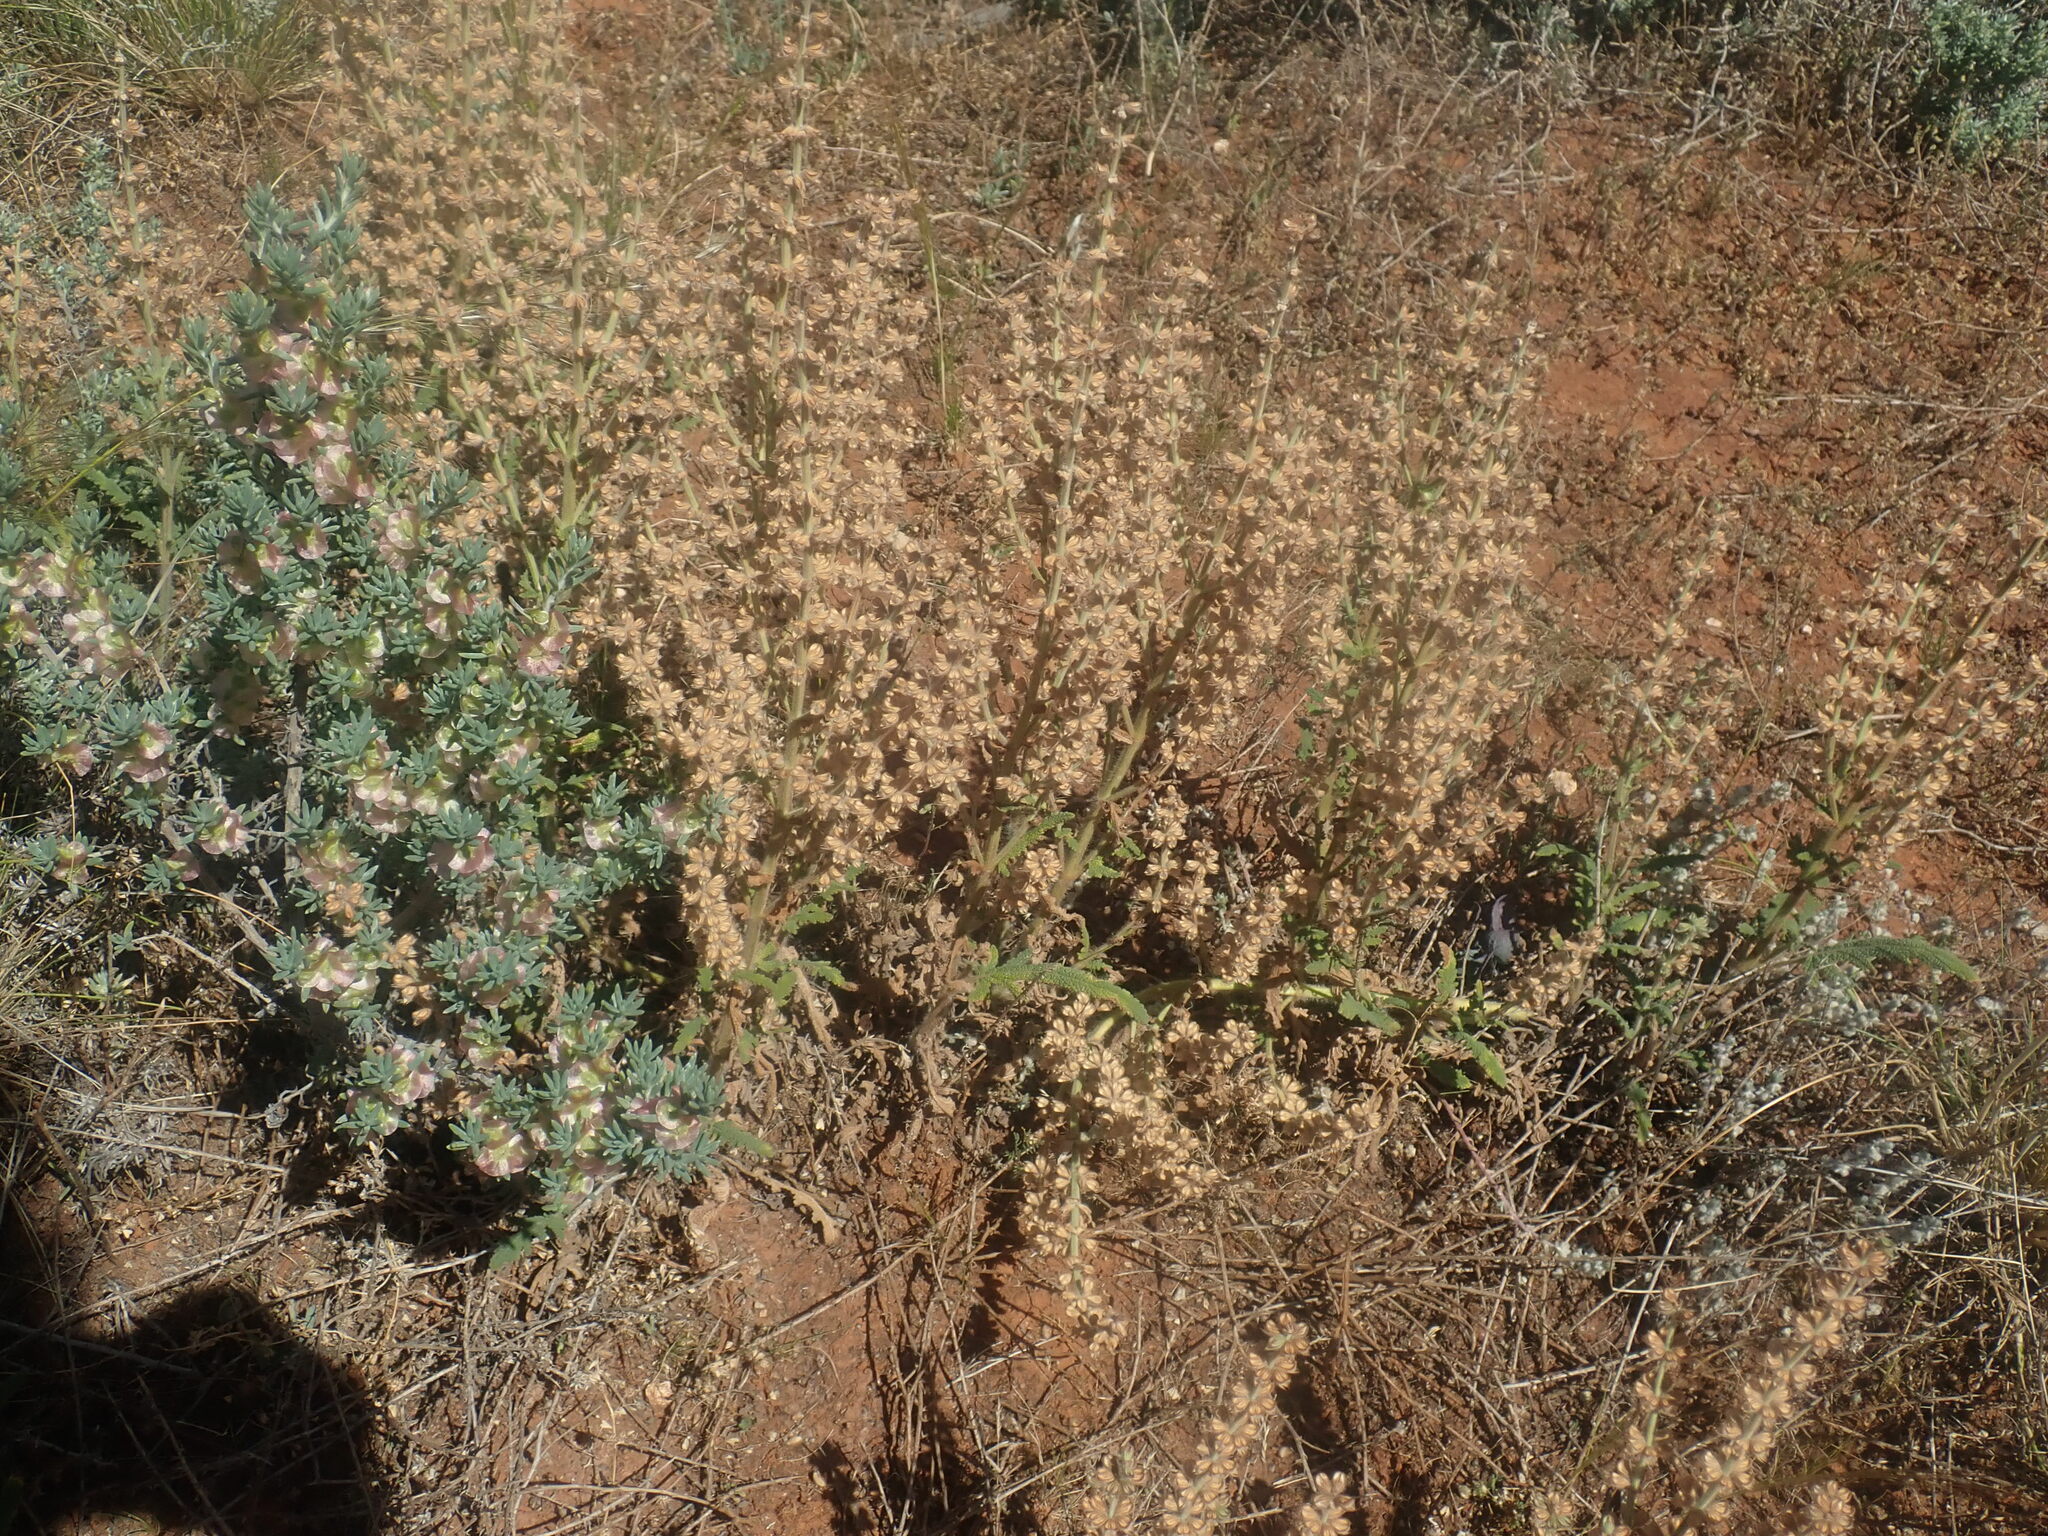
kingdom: Plantae
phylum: Tracheophyta
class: Magnoliopsida
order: Lamiales
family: Lamiaceae
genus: Salvia
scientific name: Salvia verbenaca
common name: Wild clary
